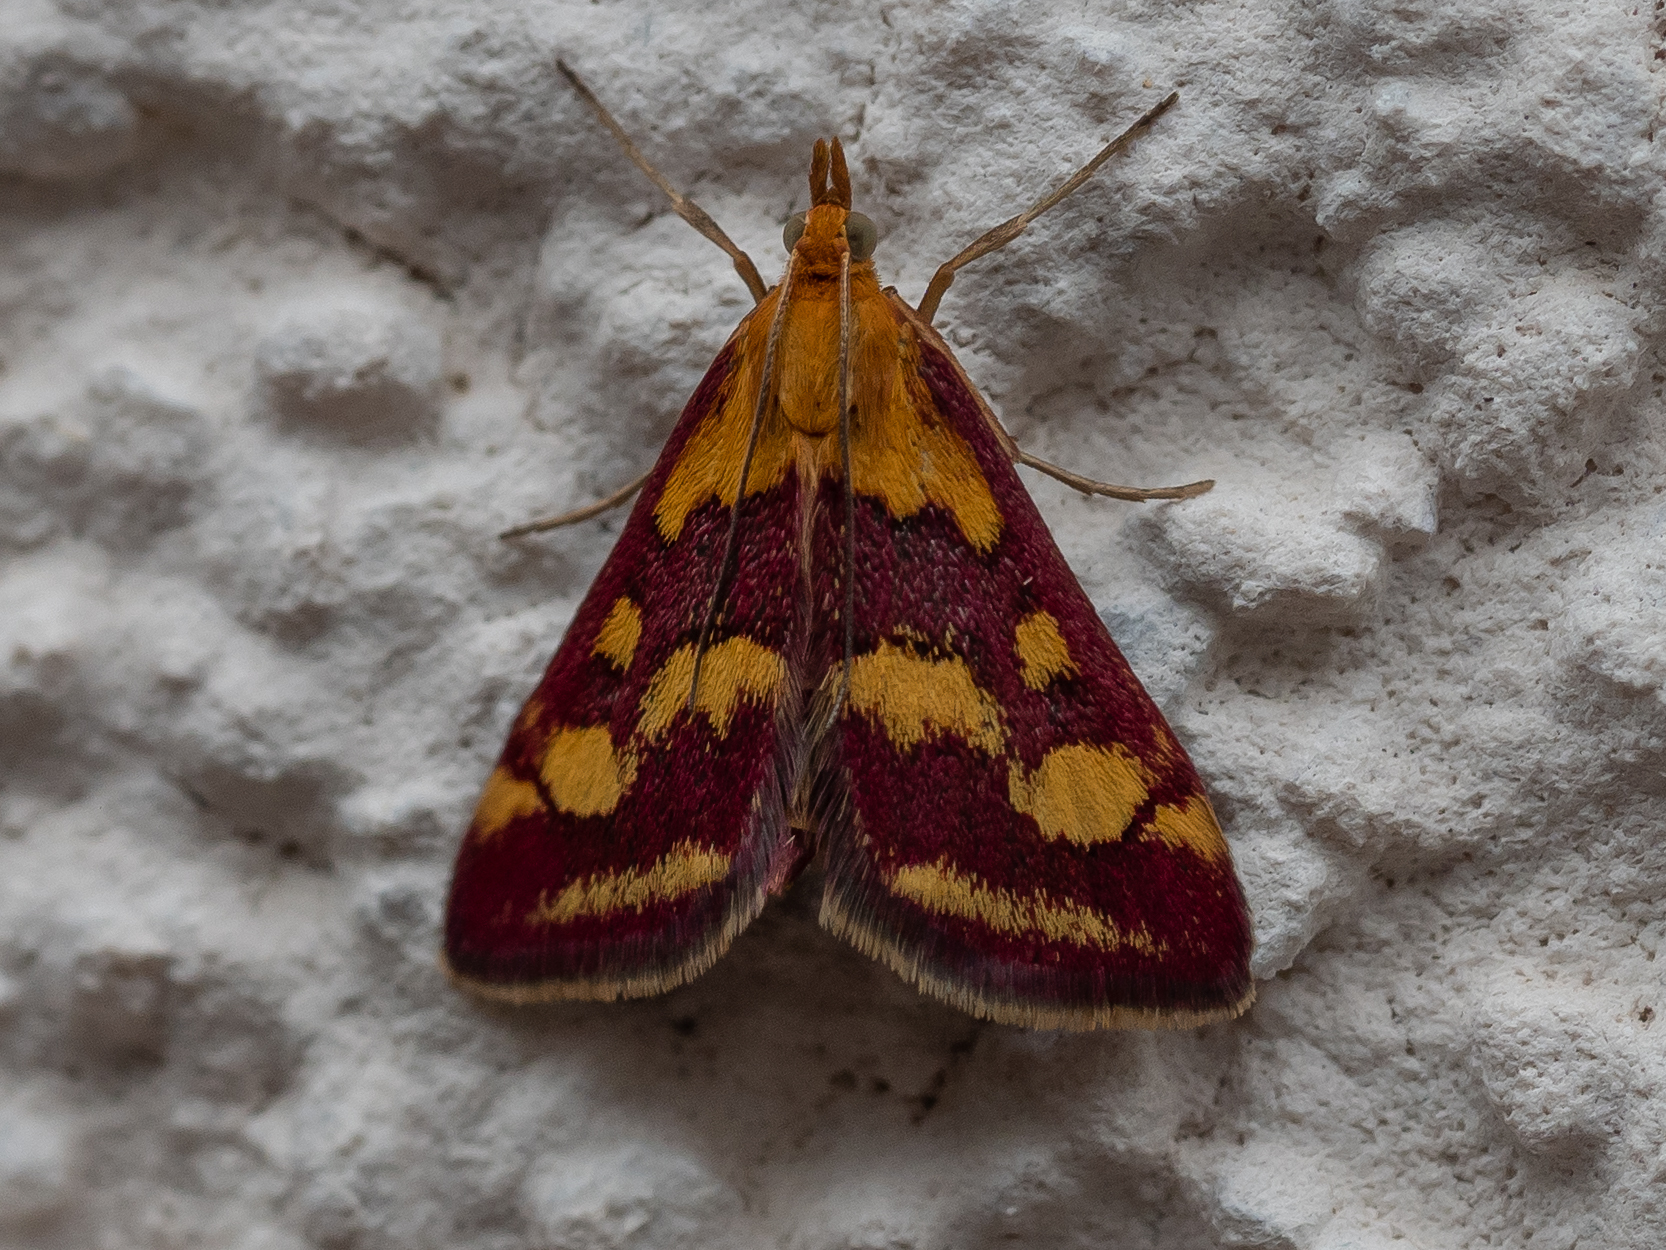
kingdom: Animalia
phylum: Arthropoda
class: Insecta
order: Lepidoptera
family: Crambidae
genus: Pyrausta
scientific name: Pyrausta purpuralis
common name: Common purple & gold
